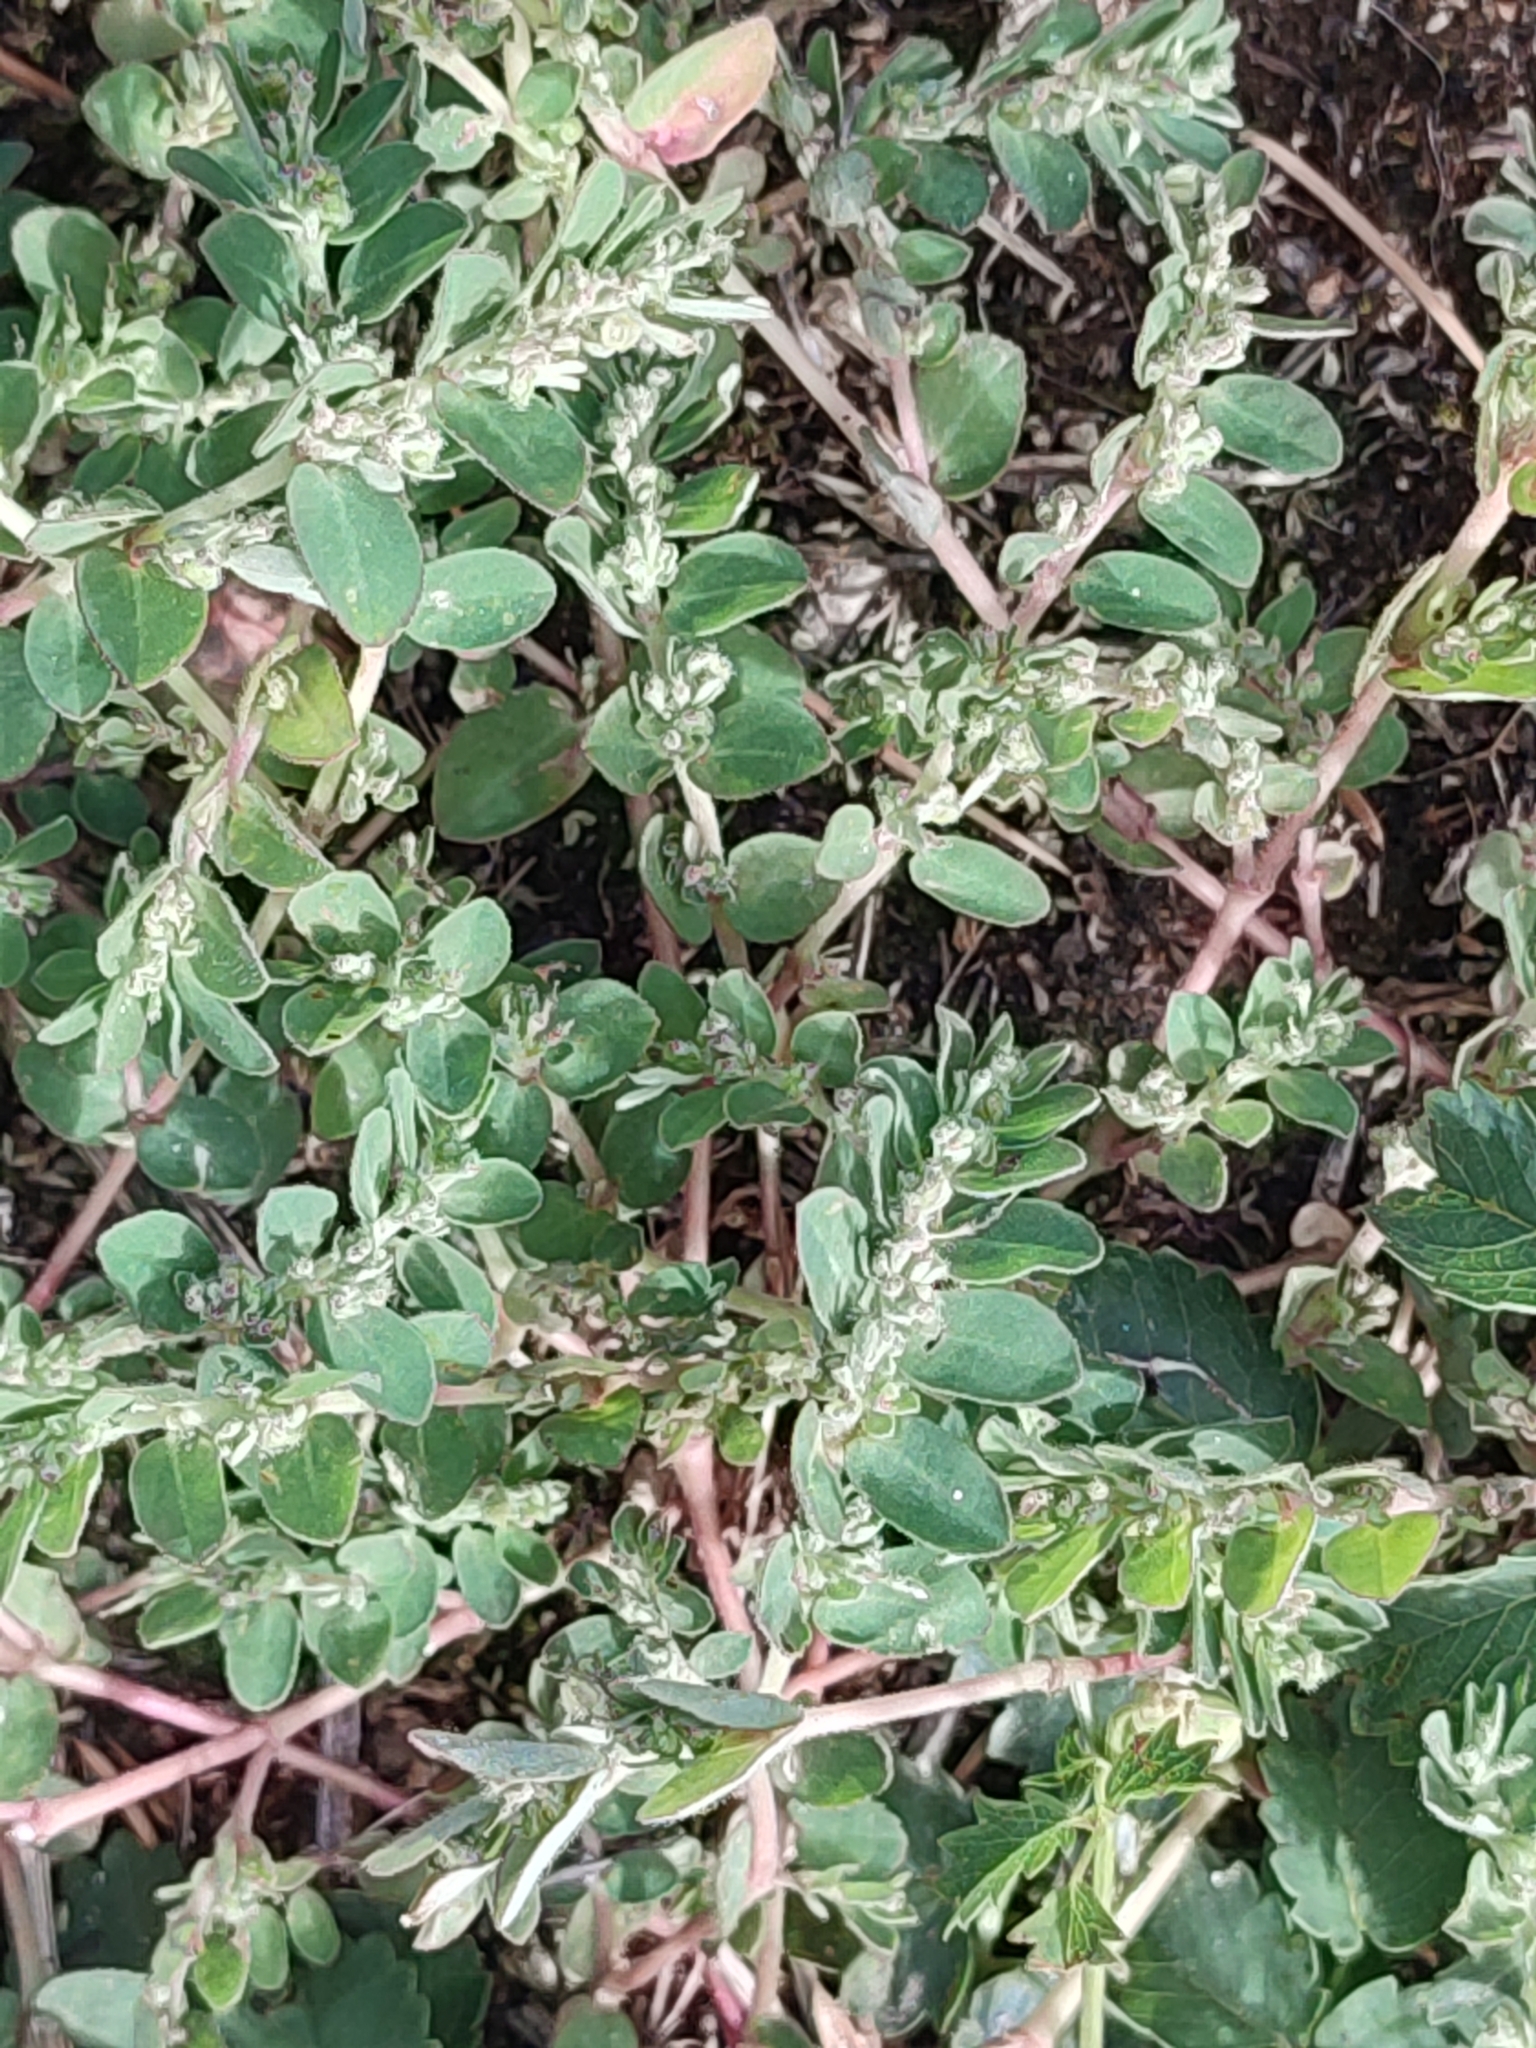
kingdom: Plantae
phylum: Tracheophyta
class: Magnoliopsida
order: Malpighiales
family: Euphorbiaceae
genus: Euphorbia
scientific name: Euphorbia prostrata
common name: Prostrate sandmat
